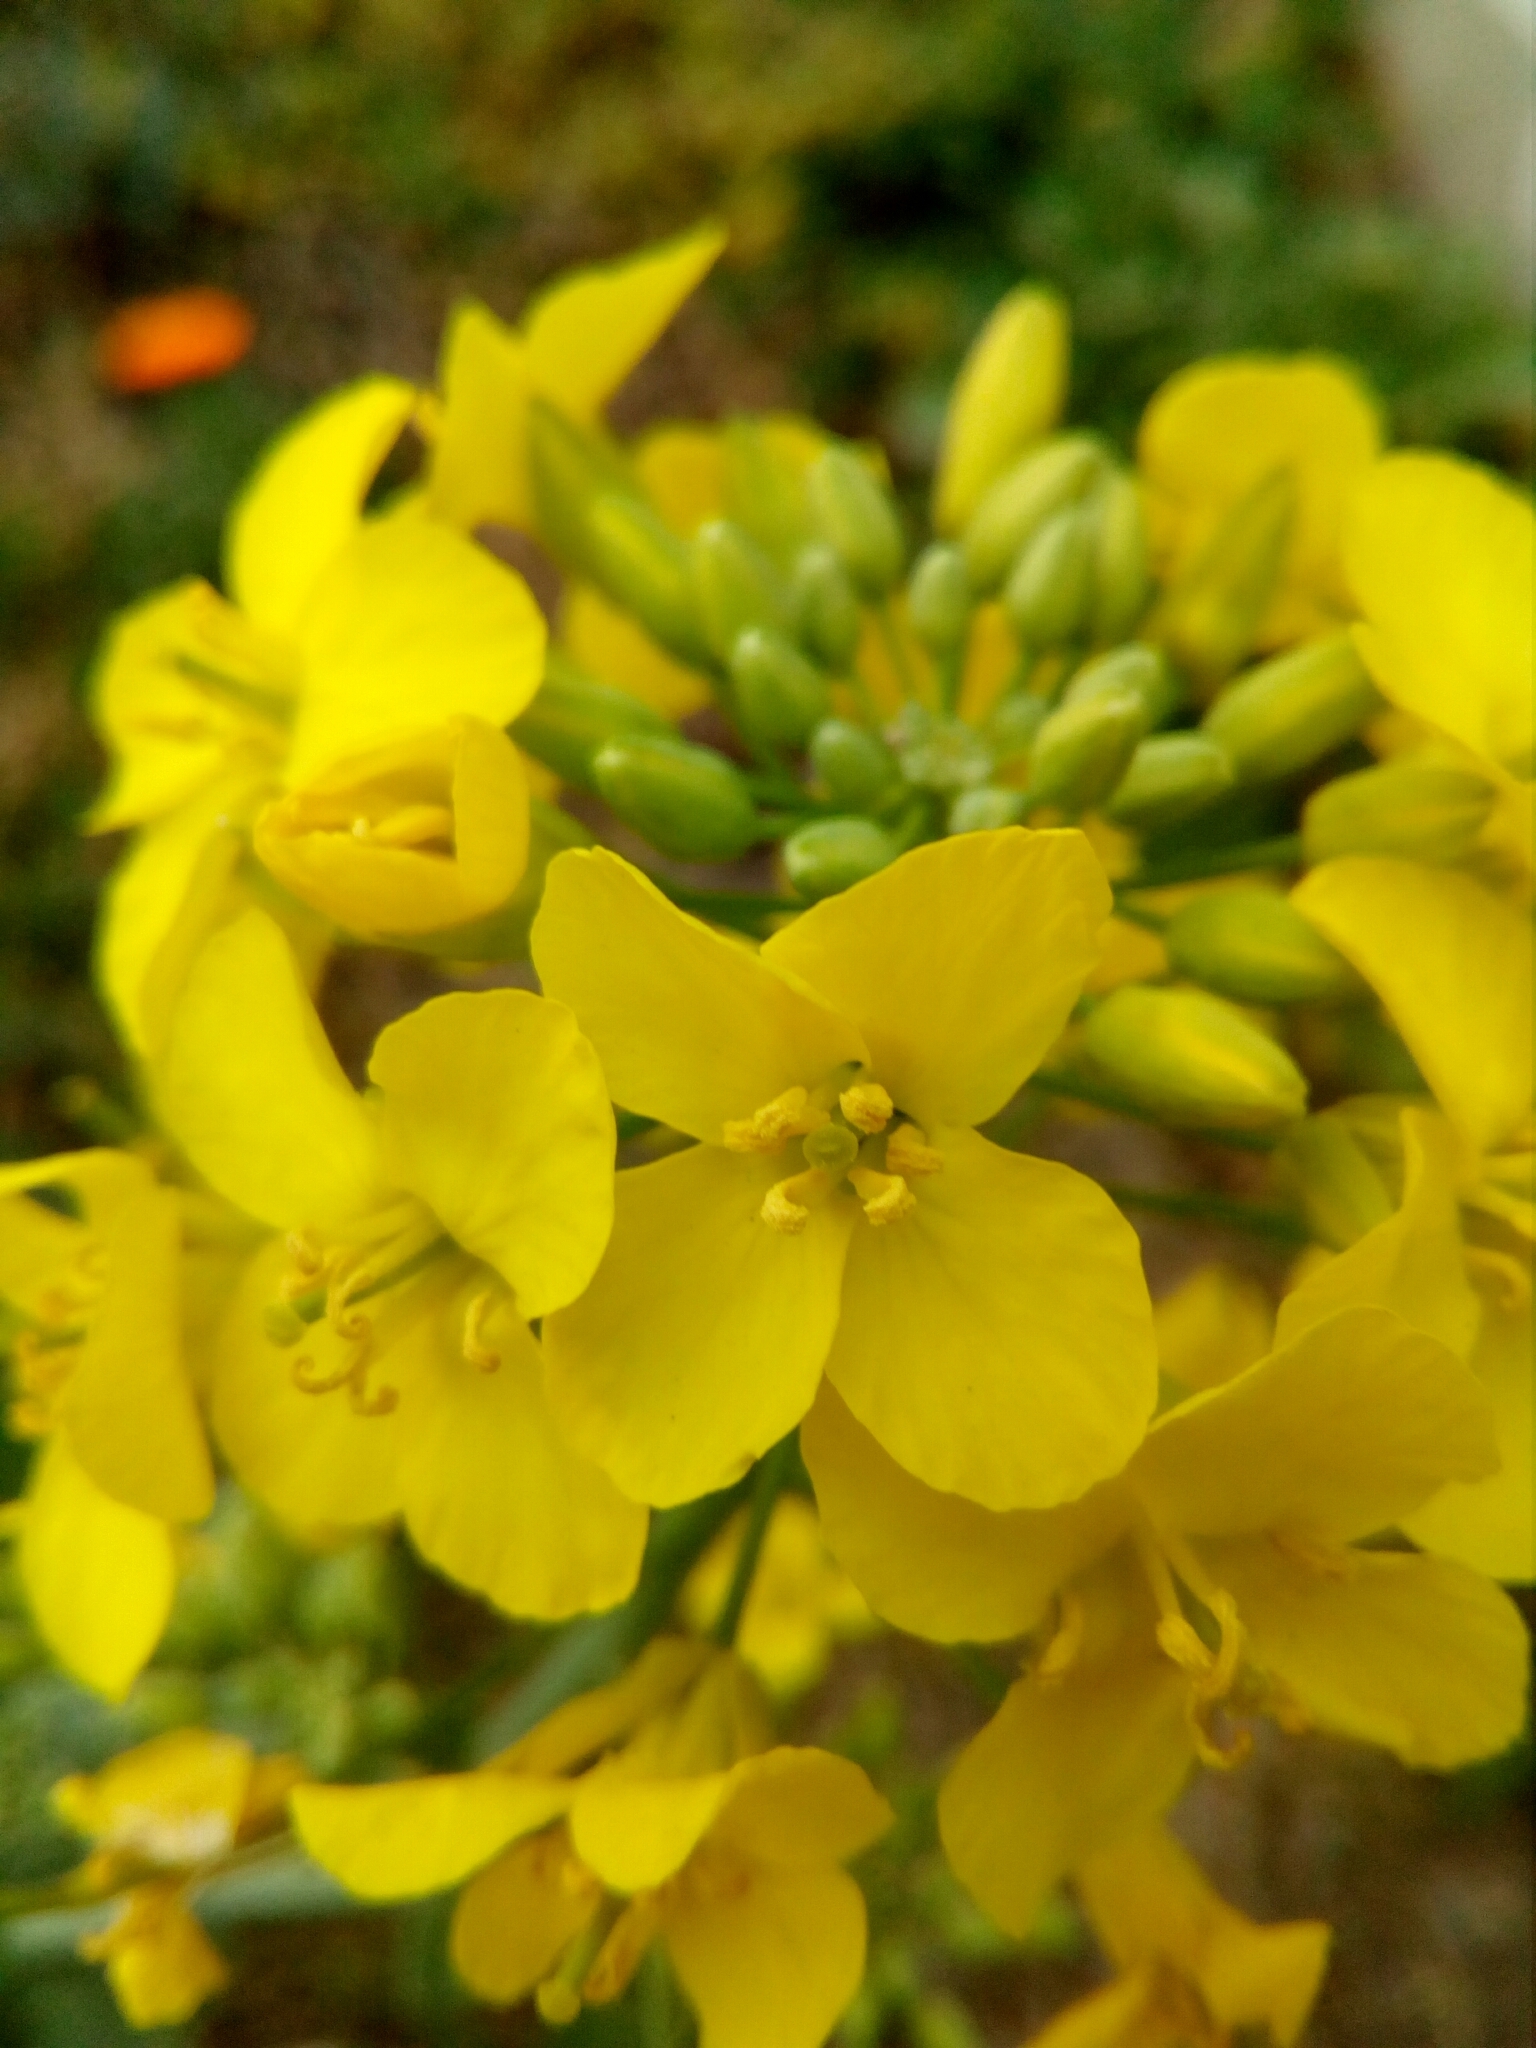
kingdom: Plantae
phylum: Tracheophyta
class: Magnoliopsida
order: Brassicales
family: Brassicaceae
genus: Brassica
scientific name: Brassica napus
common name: Rape
